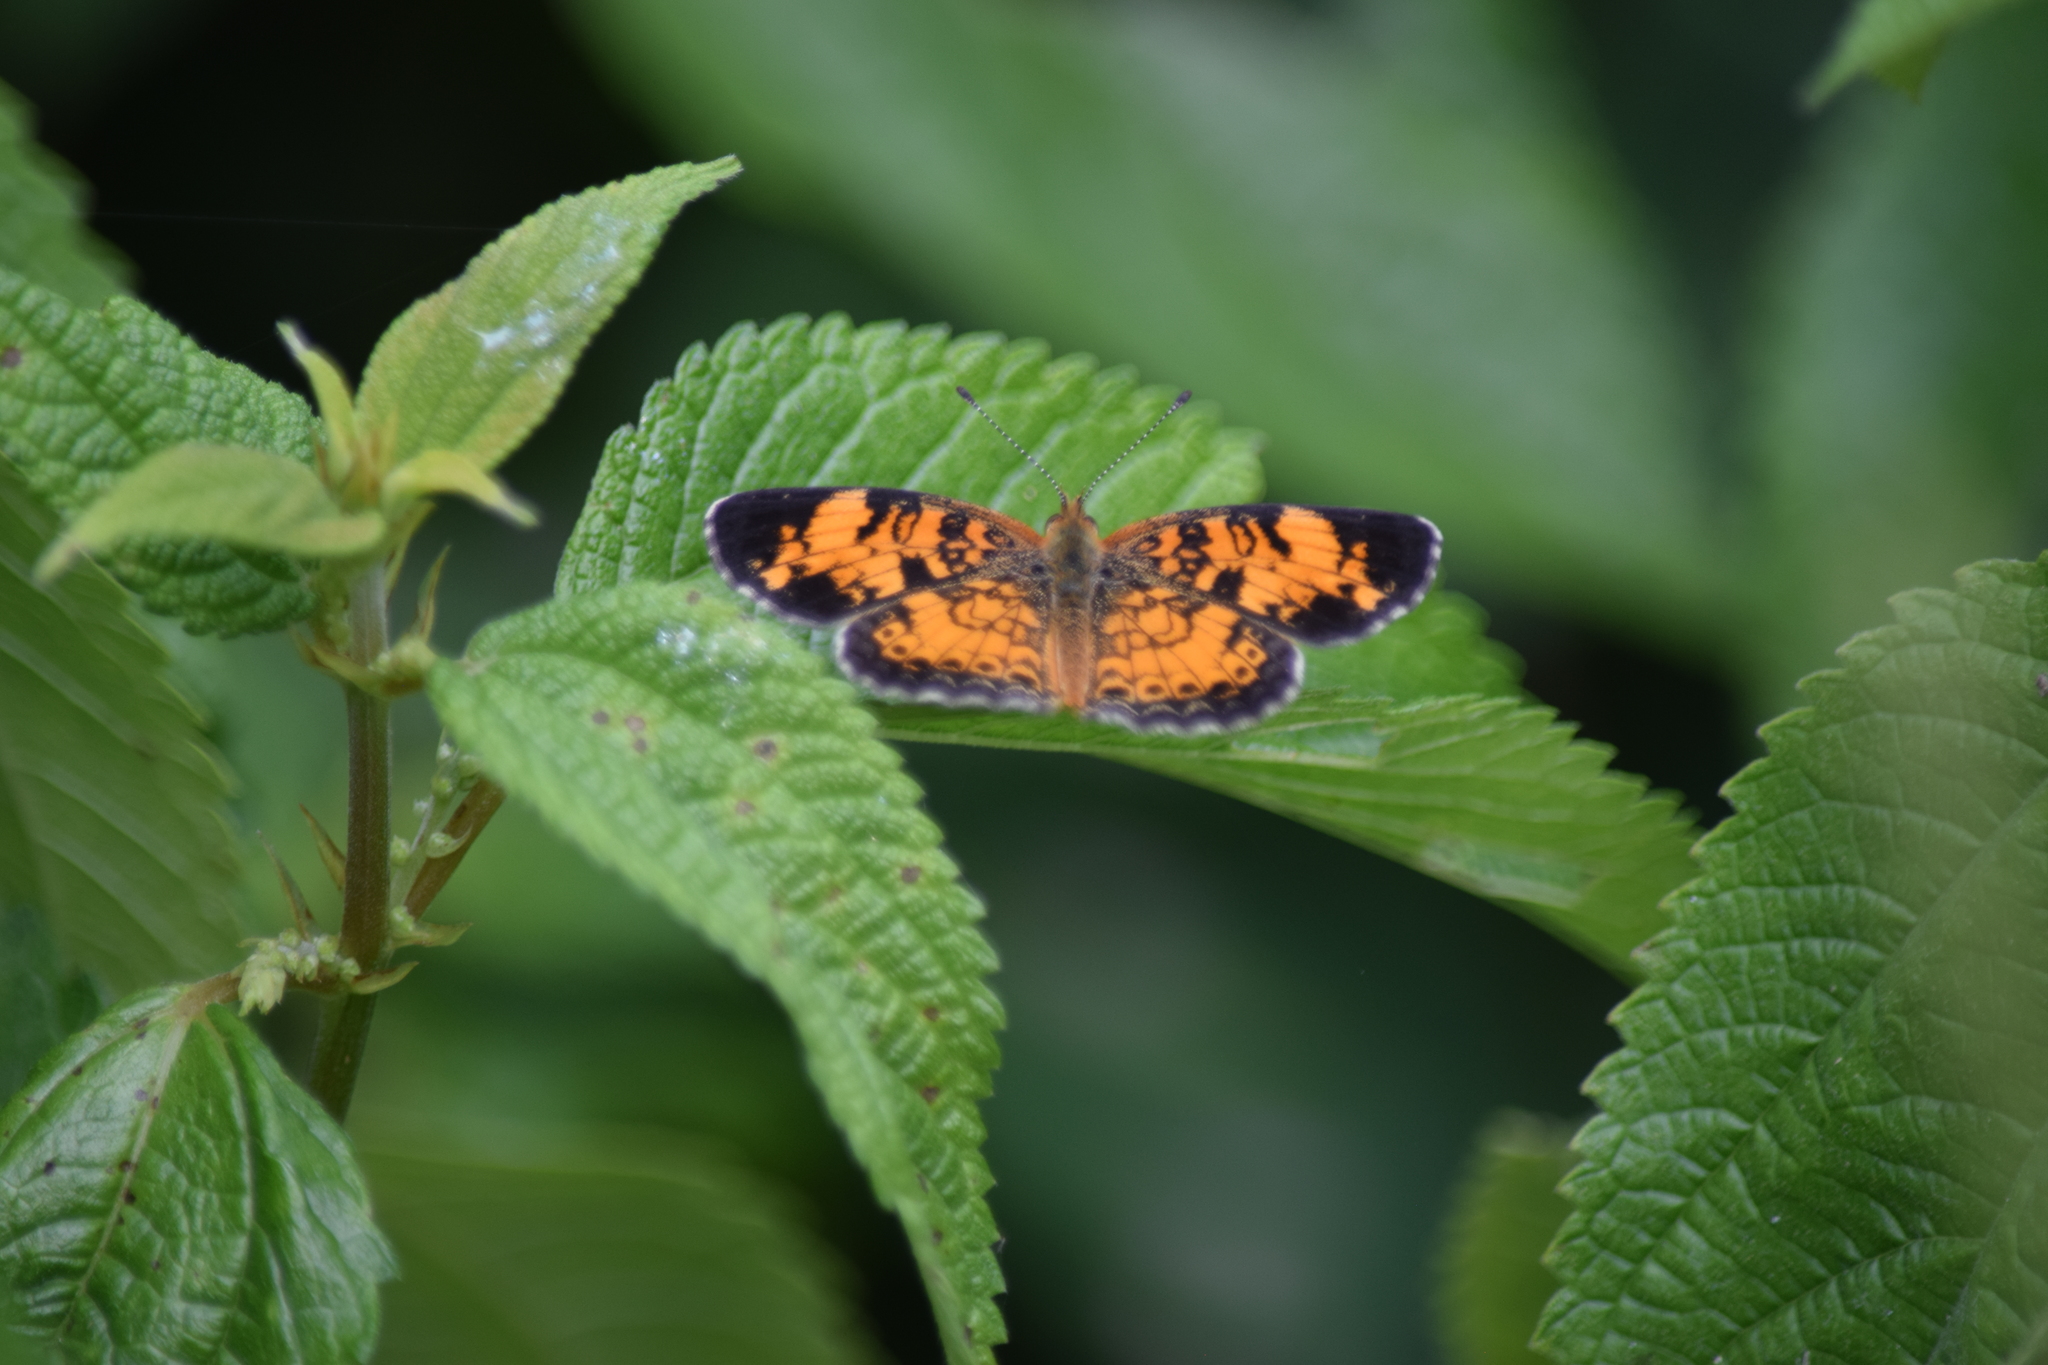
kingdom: Animalia
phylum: Arthropoda
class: Insecta
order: Lepidoptera
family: Nymphalidae
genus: Phyciodes
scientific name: Phyciodes tharos
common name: Pearl crescent
